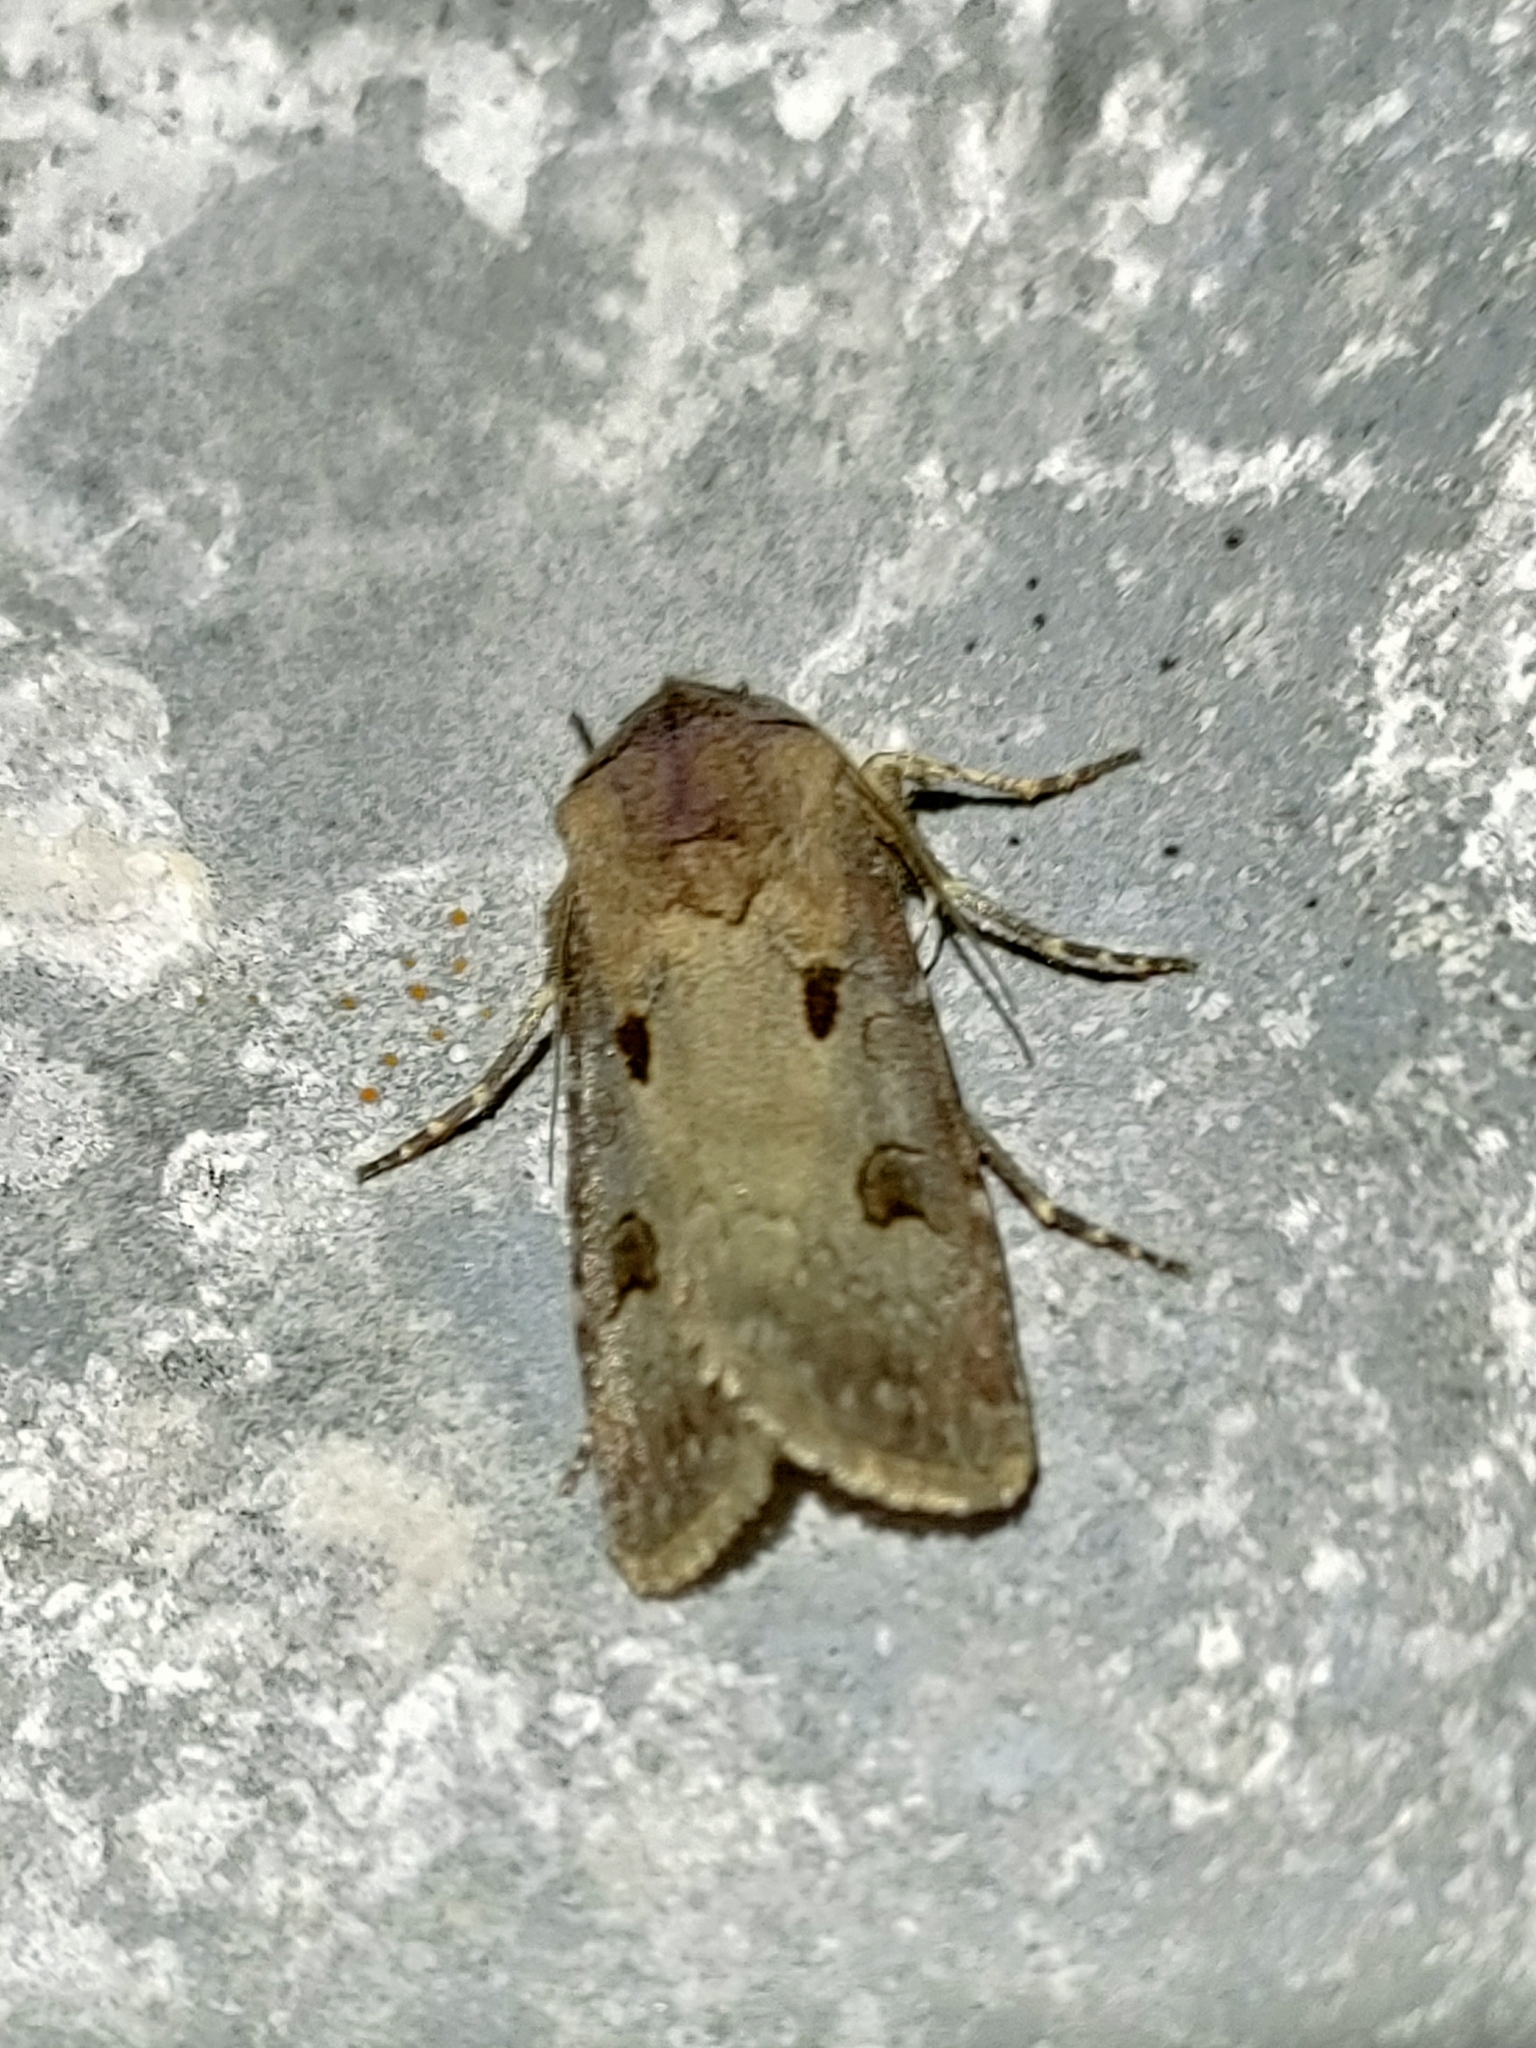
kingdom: Animalia
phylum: Arthropoda
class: Insecta
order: Lepidoptera
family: Noctuidae
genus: Agrotis
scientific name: Agrotis exclamationis
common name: Heart and dart
